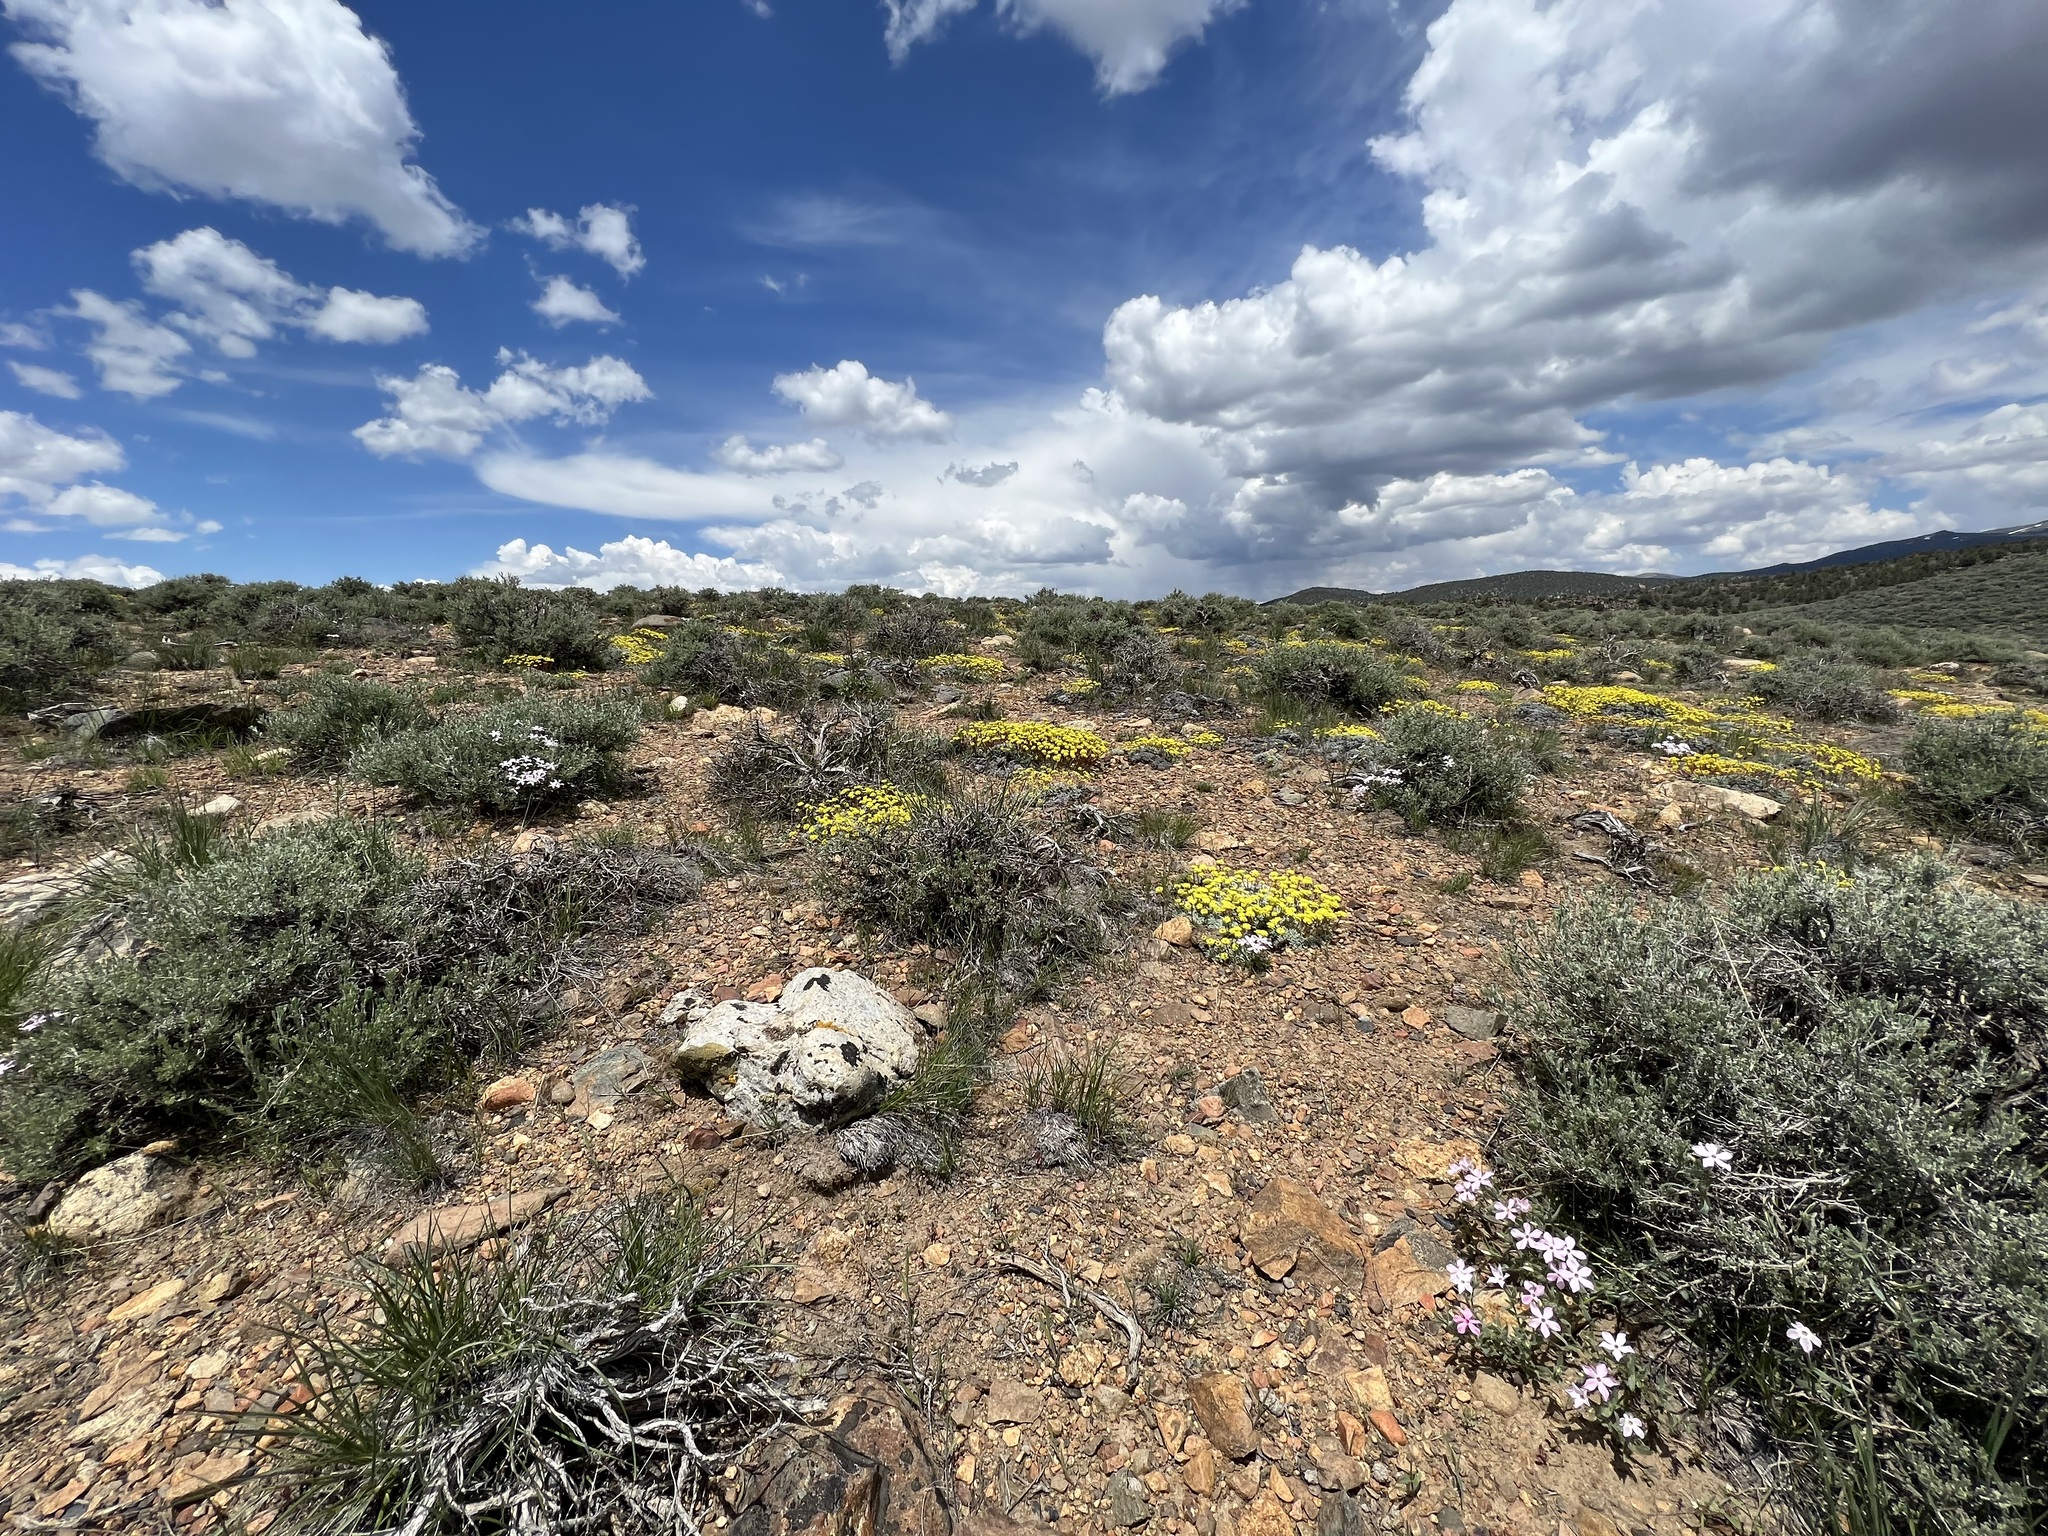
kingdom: Plantae
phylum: Tracheophyta
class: Magnoliopsida
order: Caryophyllales
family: Polygonaceae
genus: Eriogonum
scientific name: Eriogonum caespitosum
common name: Matted wild buckwheat
